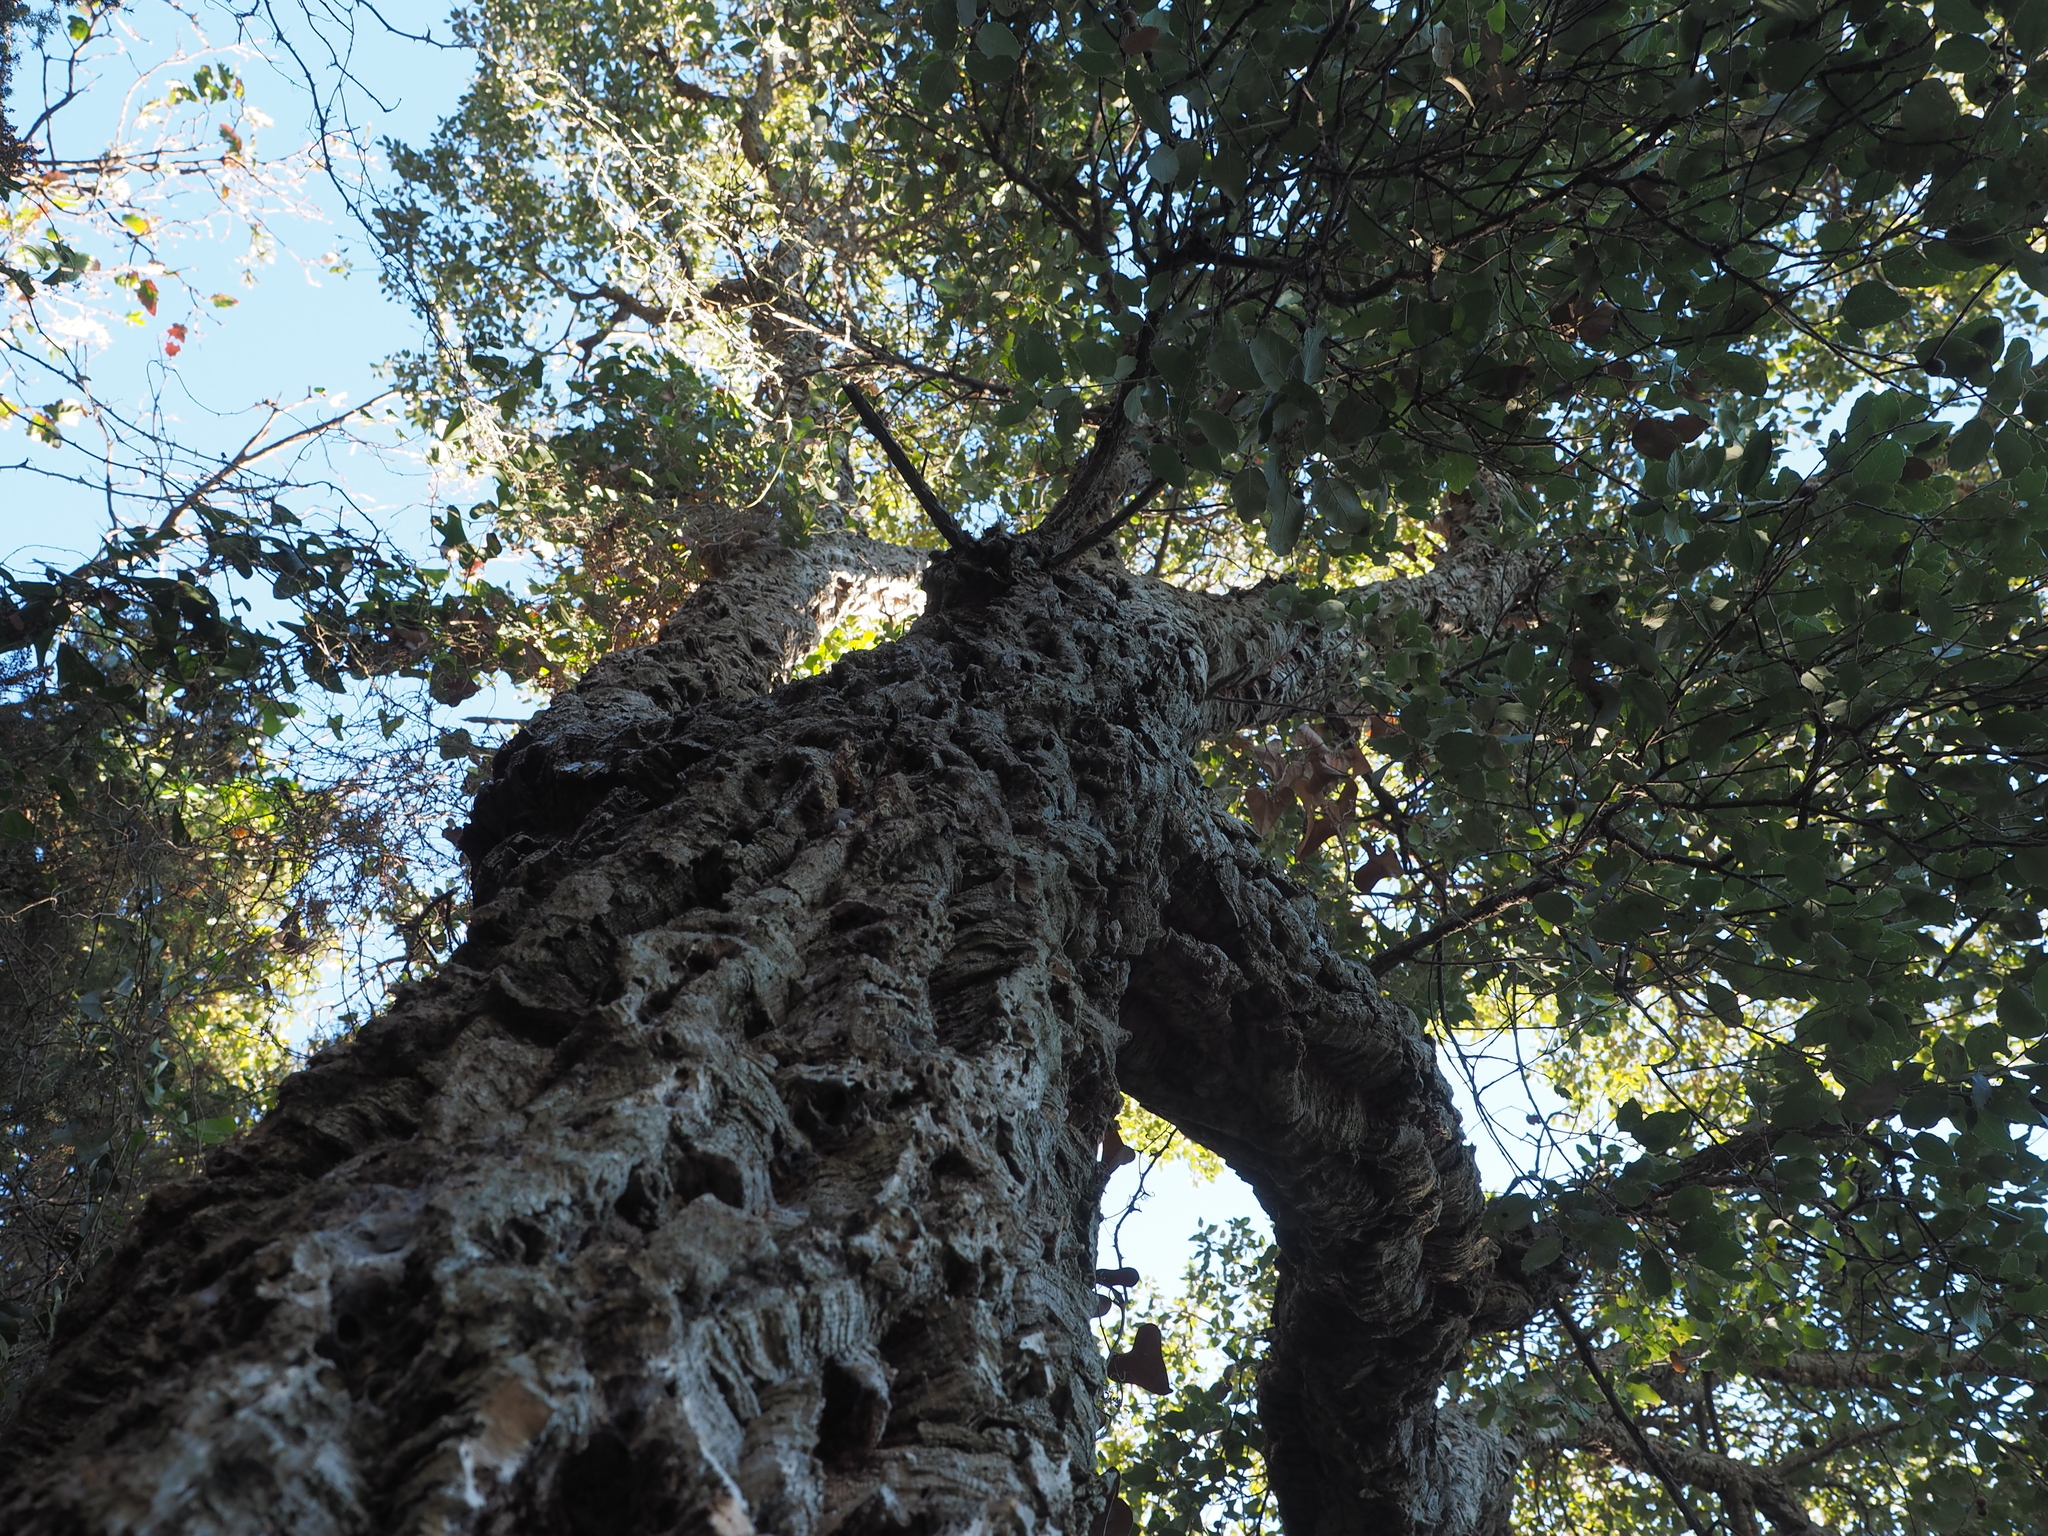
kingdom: Plantae
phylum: Tracheophyta
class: Magnoliopsida
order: Fagales
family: Fagaceae
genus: Quercus
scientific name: Quercus suber
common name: Cork oak
